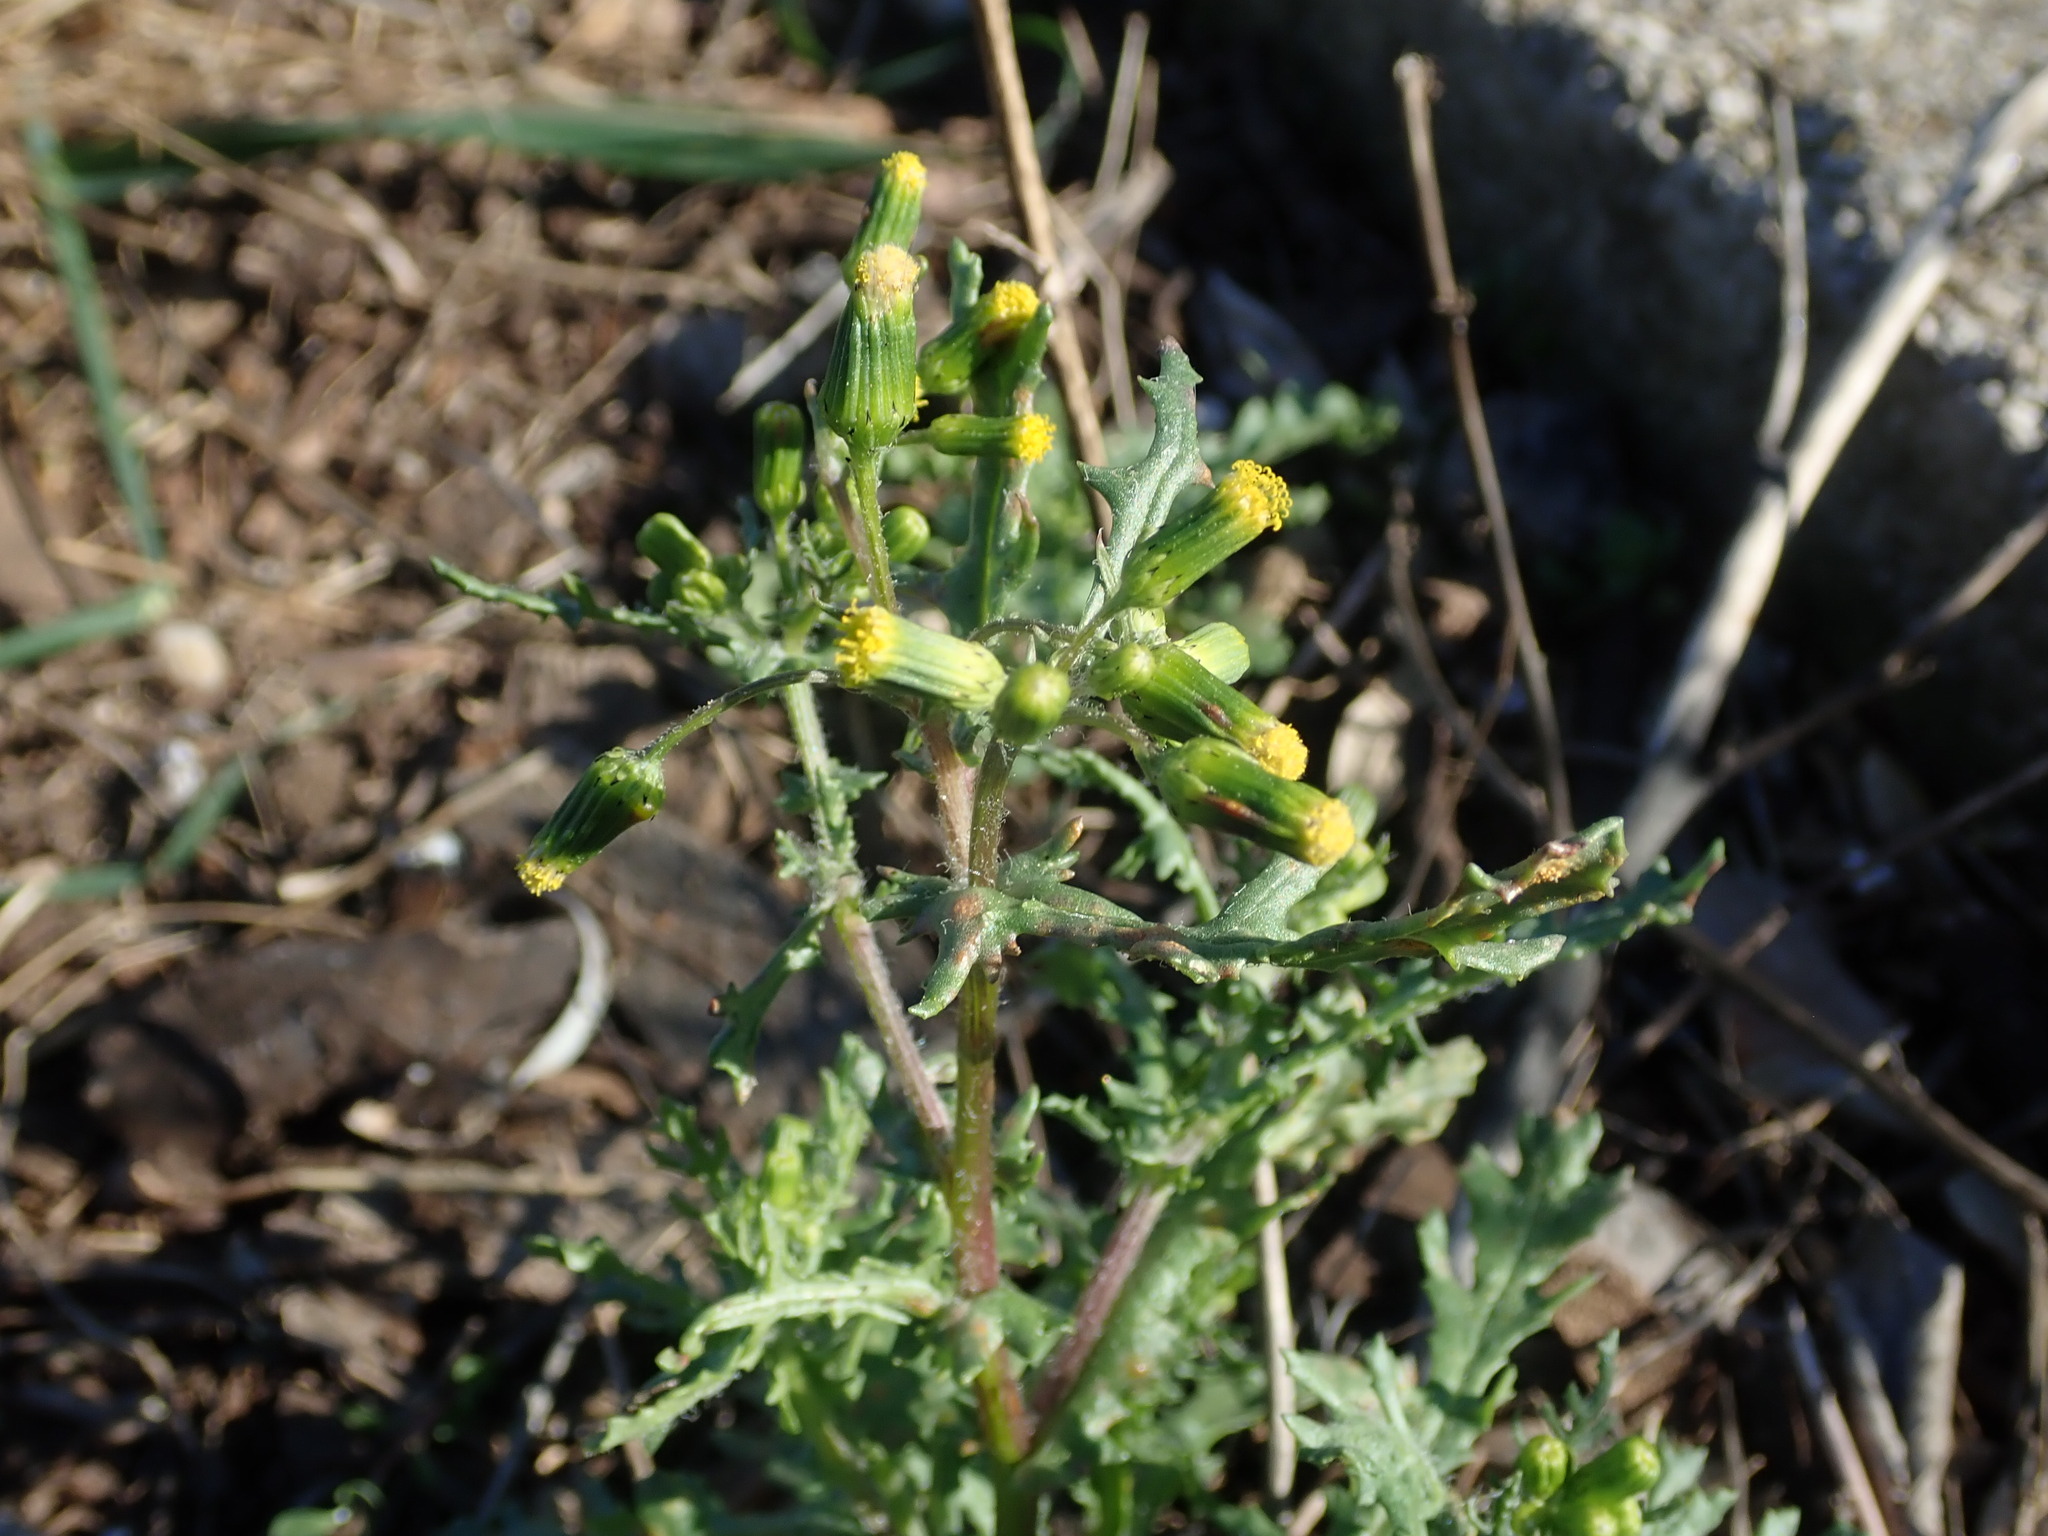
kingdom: Plantae
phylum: Tracheophyta
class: Magnoliopsida
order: Asterales
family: Asteraceae
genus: Senecio
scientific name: Senecio vulgaris
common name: Old-man-in-the-spring
